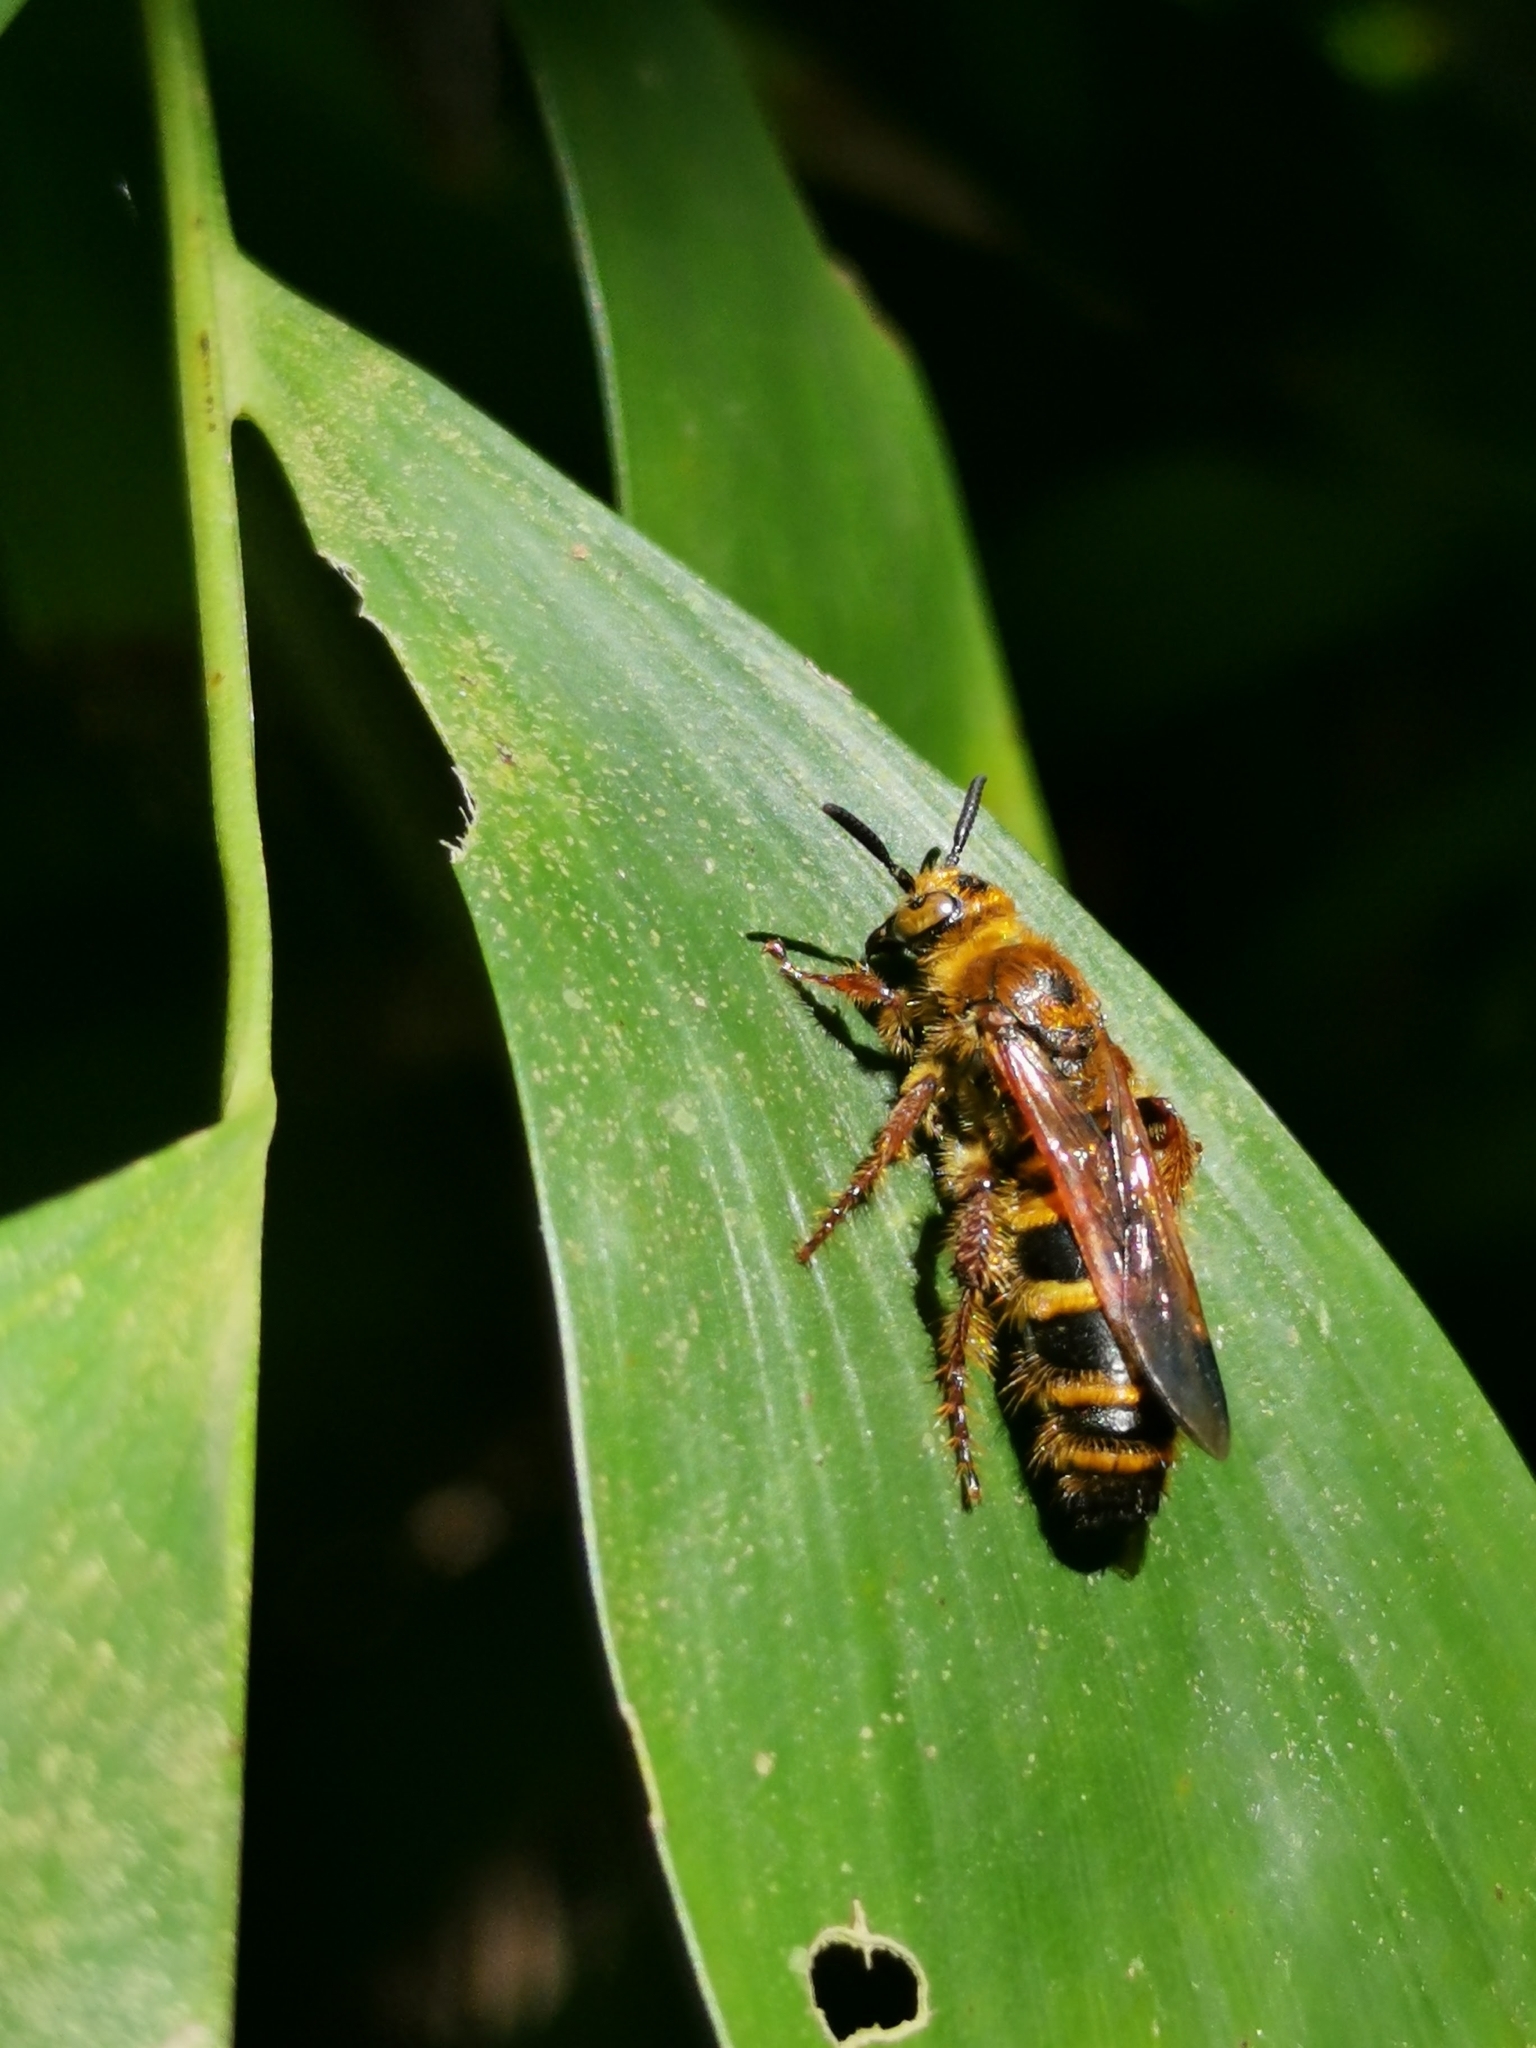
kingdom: Animalia
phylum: Arthropoda
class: Insecta
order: Hymenoptera
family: Scoliidae
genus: Campsomeris
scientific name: Campsomeris phalerata
